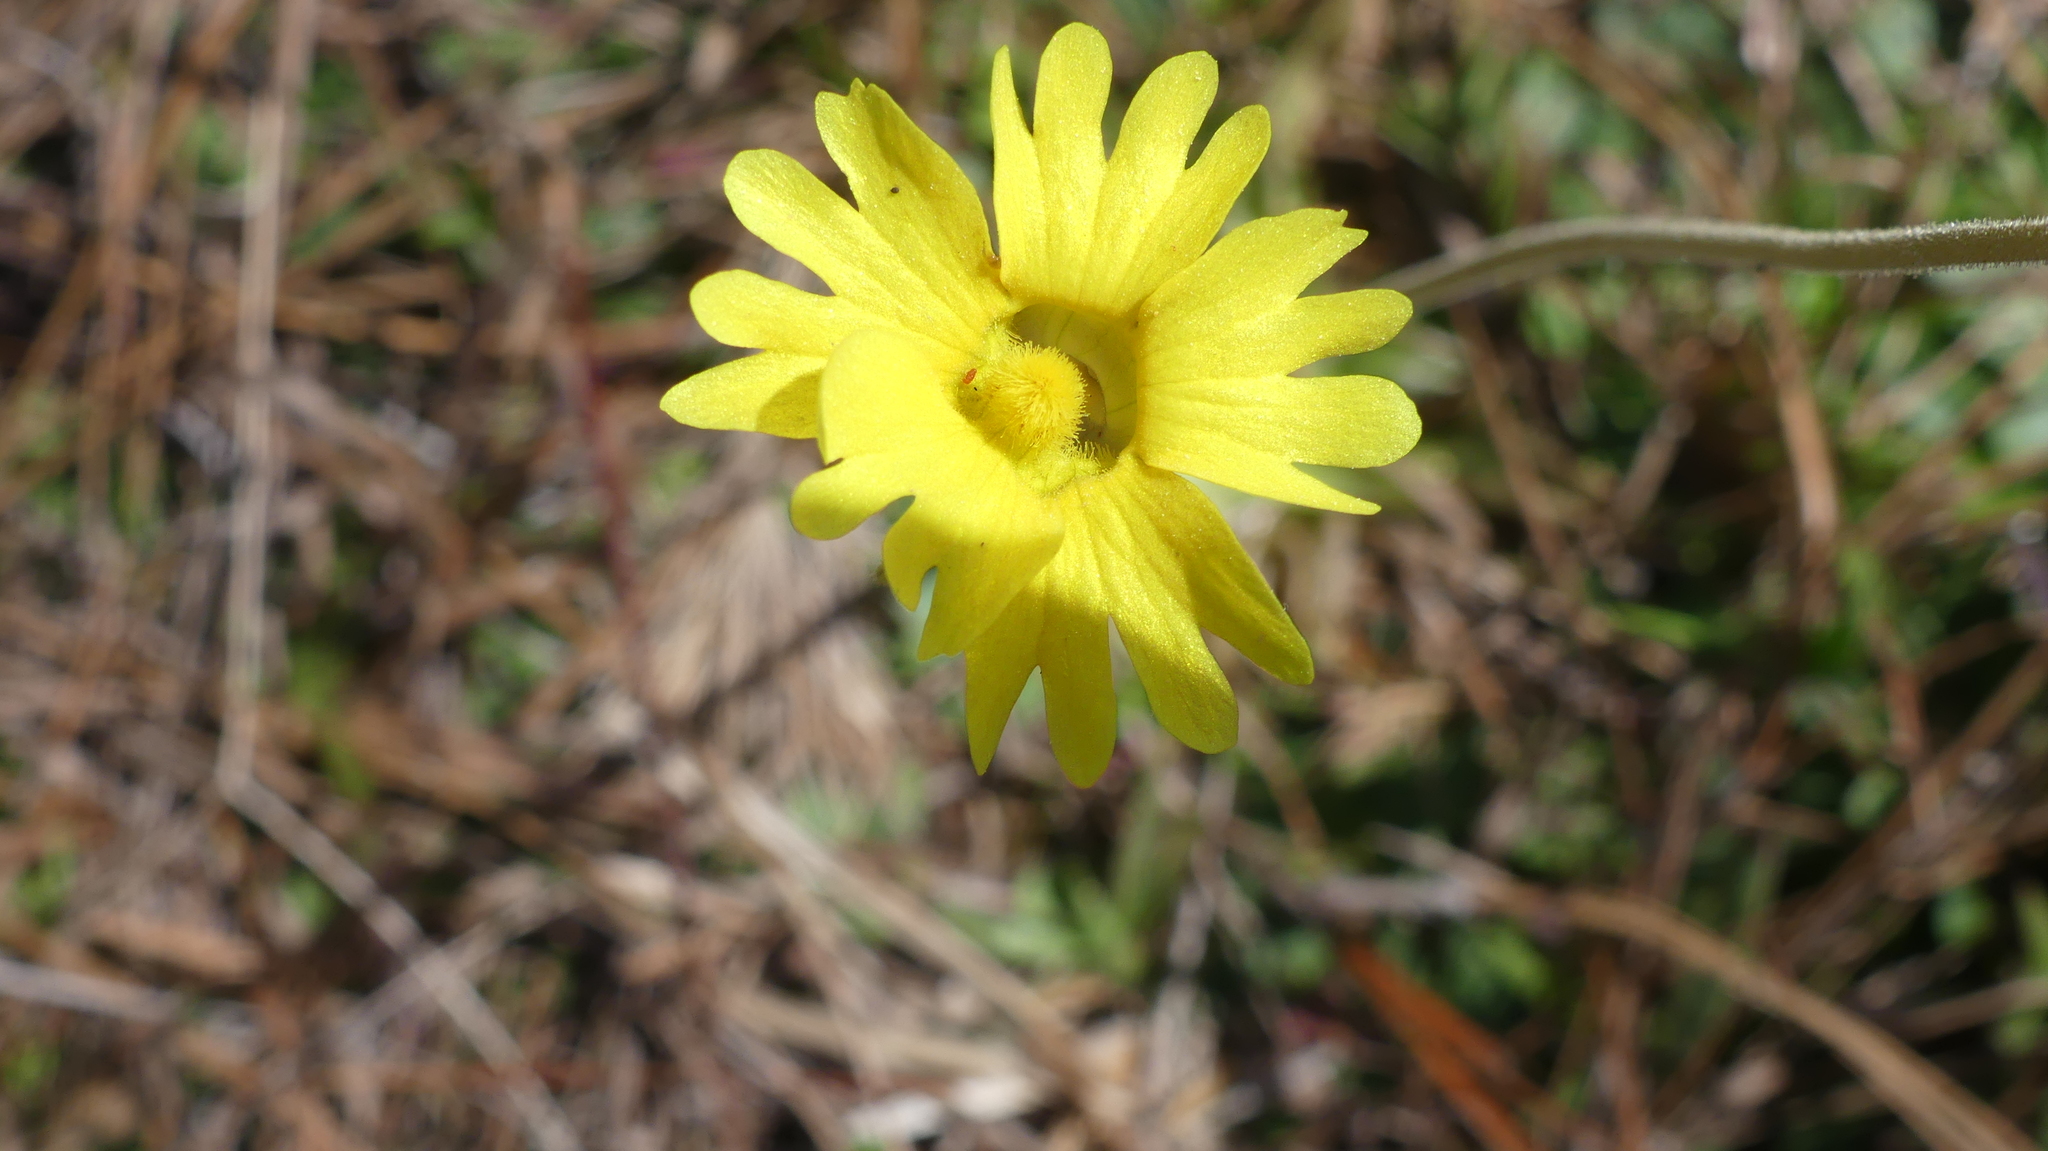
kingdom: Plantae
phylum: Tracheophyta
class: Magnoliopsida
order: Lamiales
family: Lentibulariaceae
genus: Pinguicula
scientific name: Pinguicula lutea
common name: Yellow butterwort
